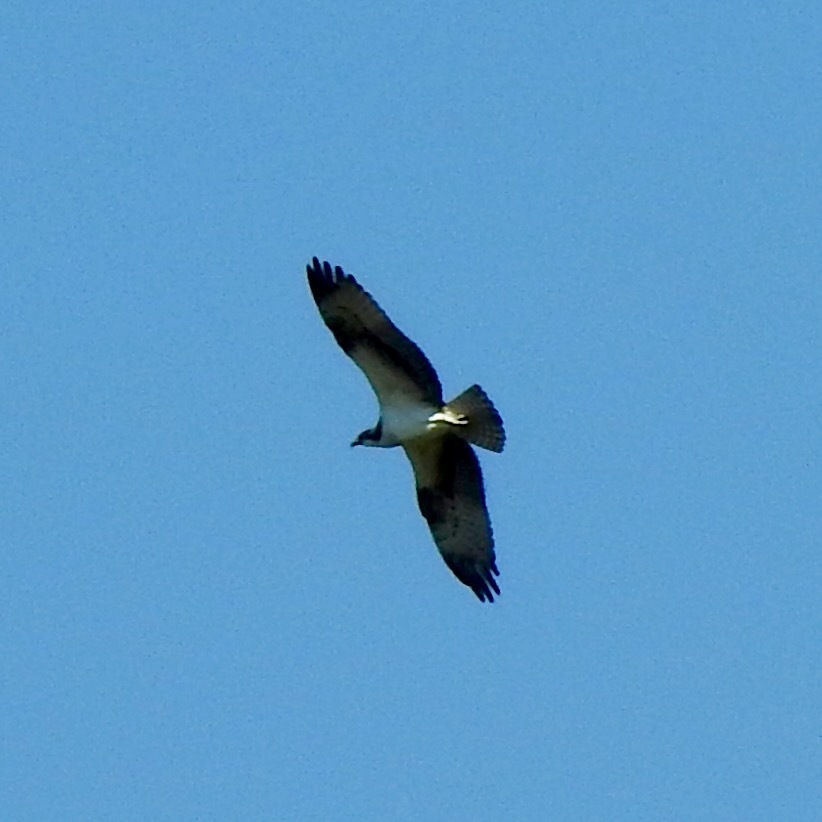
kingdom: Animalia
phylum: Chordata
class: Aves
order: Accipitriformes
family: Pandionidae
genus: Pandion
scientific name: Pandion haliaetus
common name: Osprey
